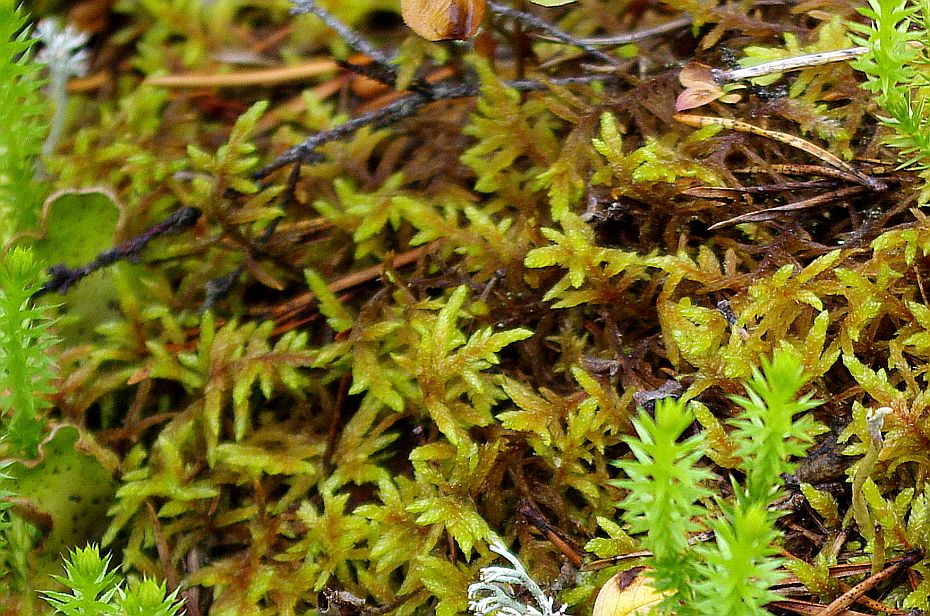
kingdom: Plantae
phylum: Bryophyta
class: Bryopsida
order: Hypnales
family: Hylocomiaceae
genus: Pleurozium
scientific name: Pleurozium schreberi
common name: Red-stemmed feather moss
